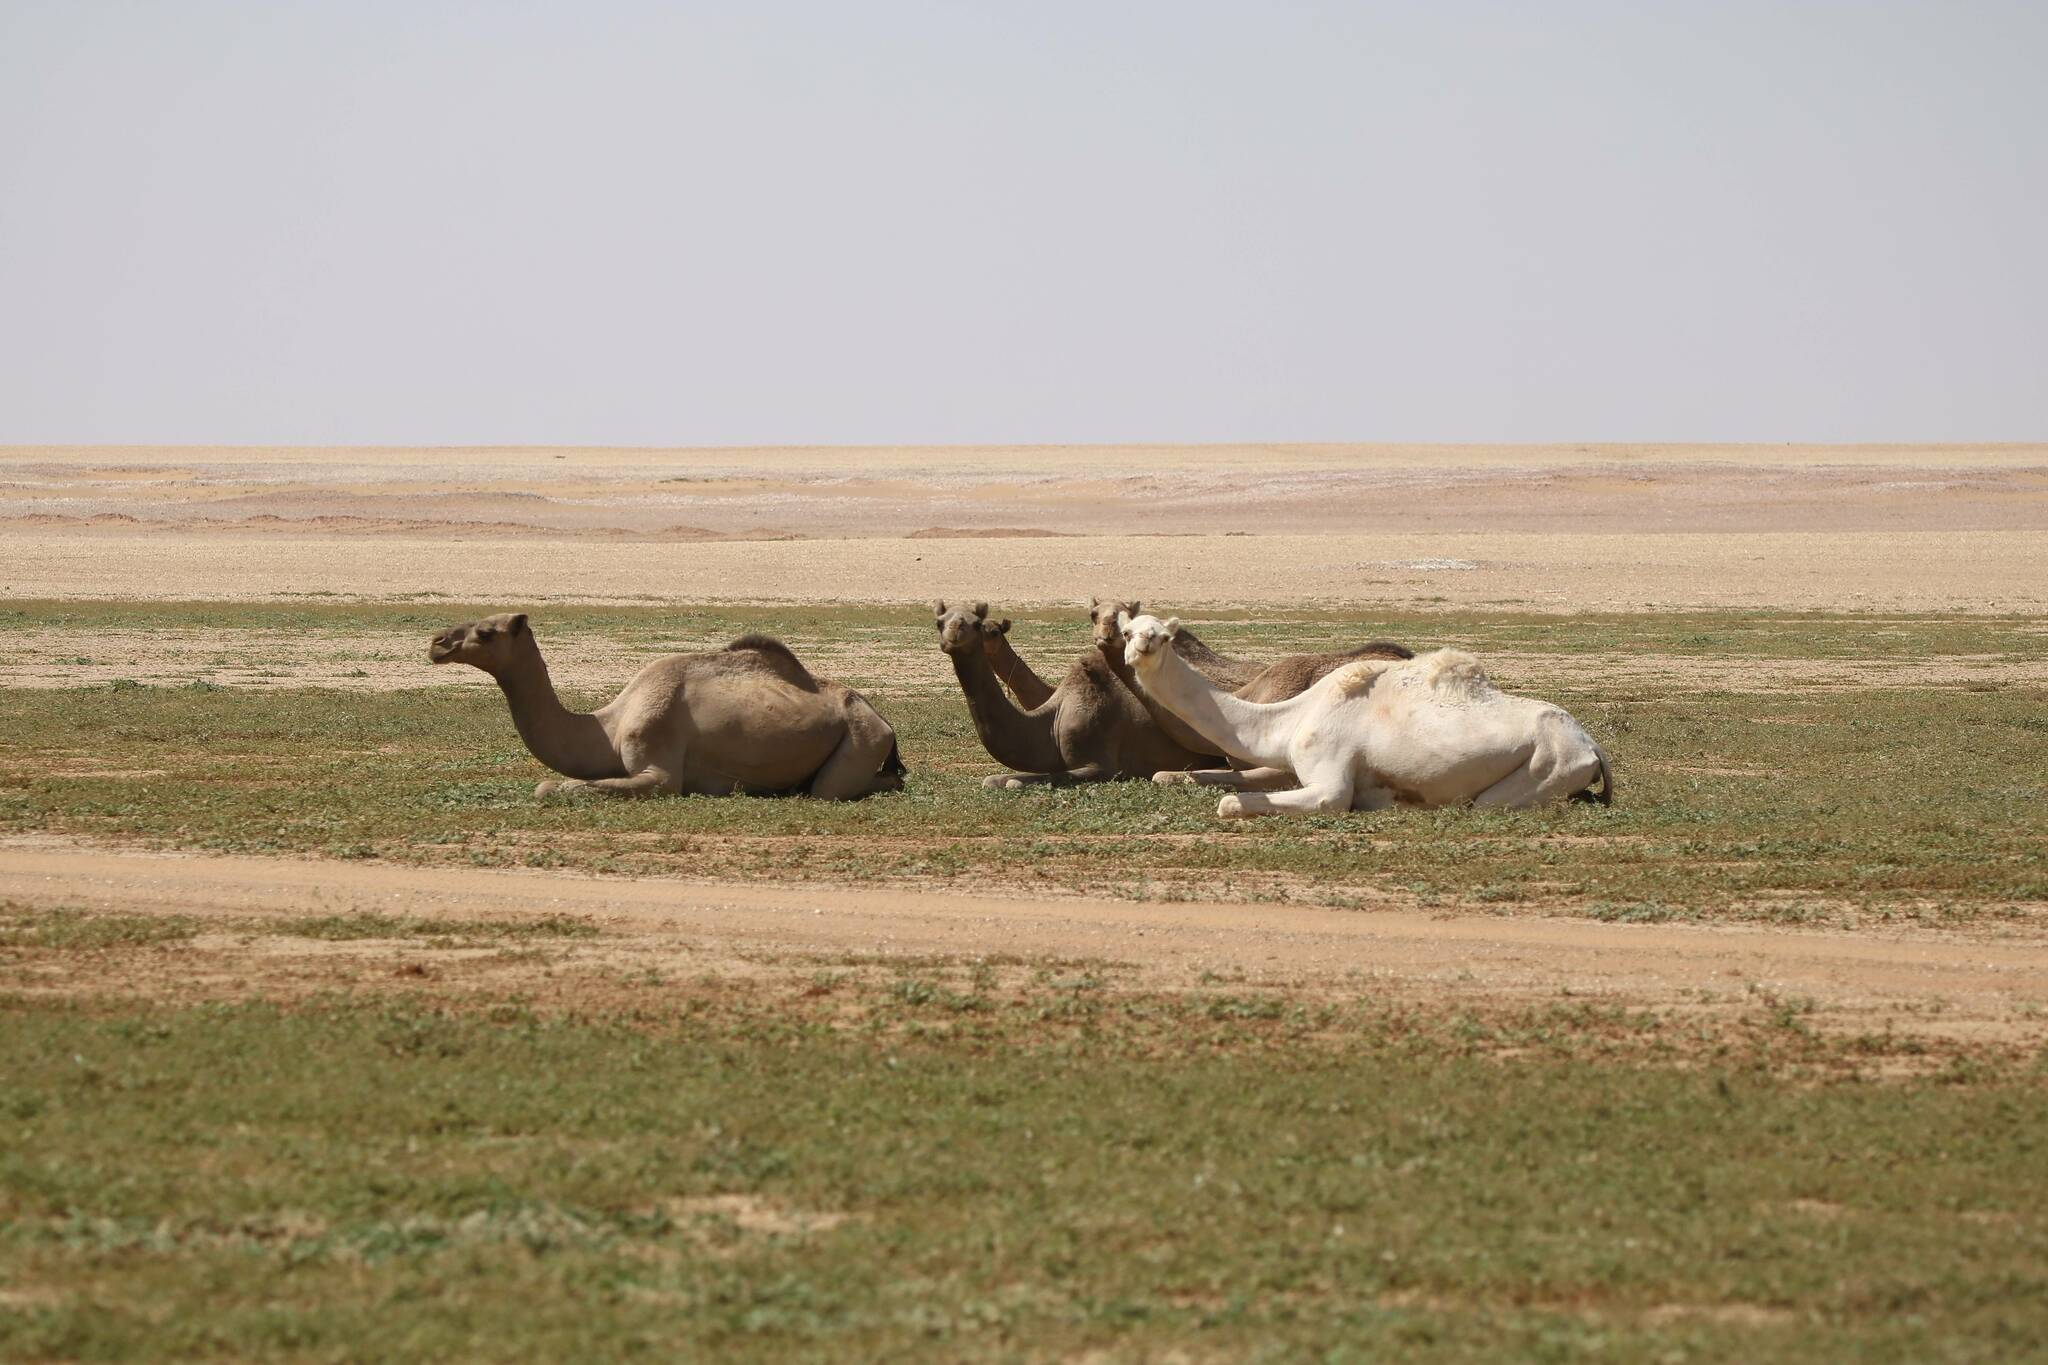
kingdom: Animalia
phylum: Chordata
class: Mammalia
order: Artiodactyla
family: Camelidae
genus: Camelus
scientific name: Camelus dromedarius
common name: One-humped camel
